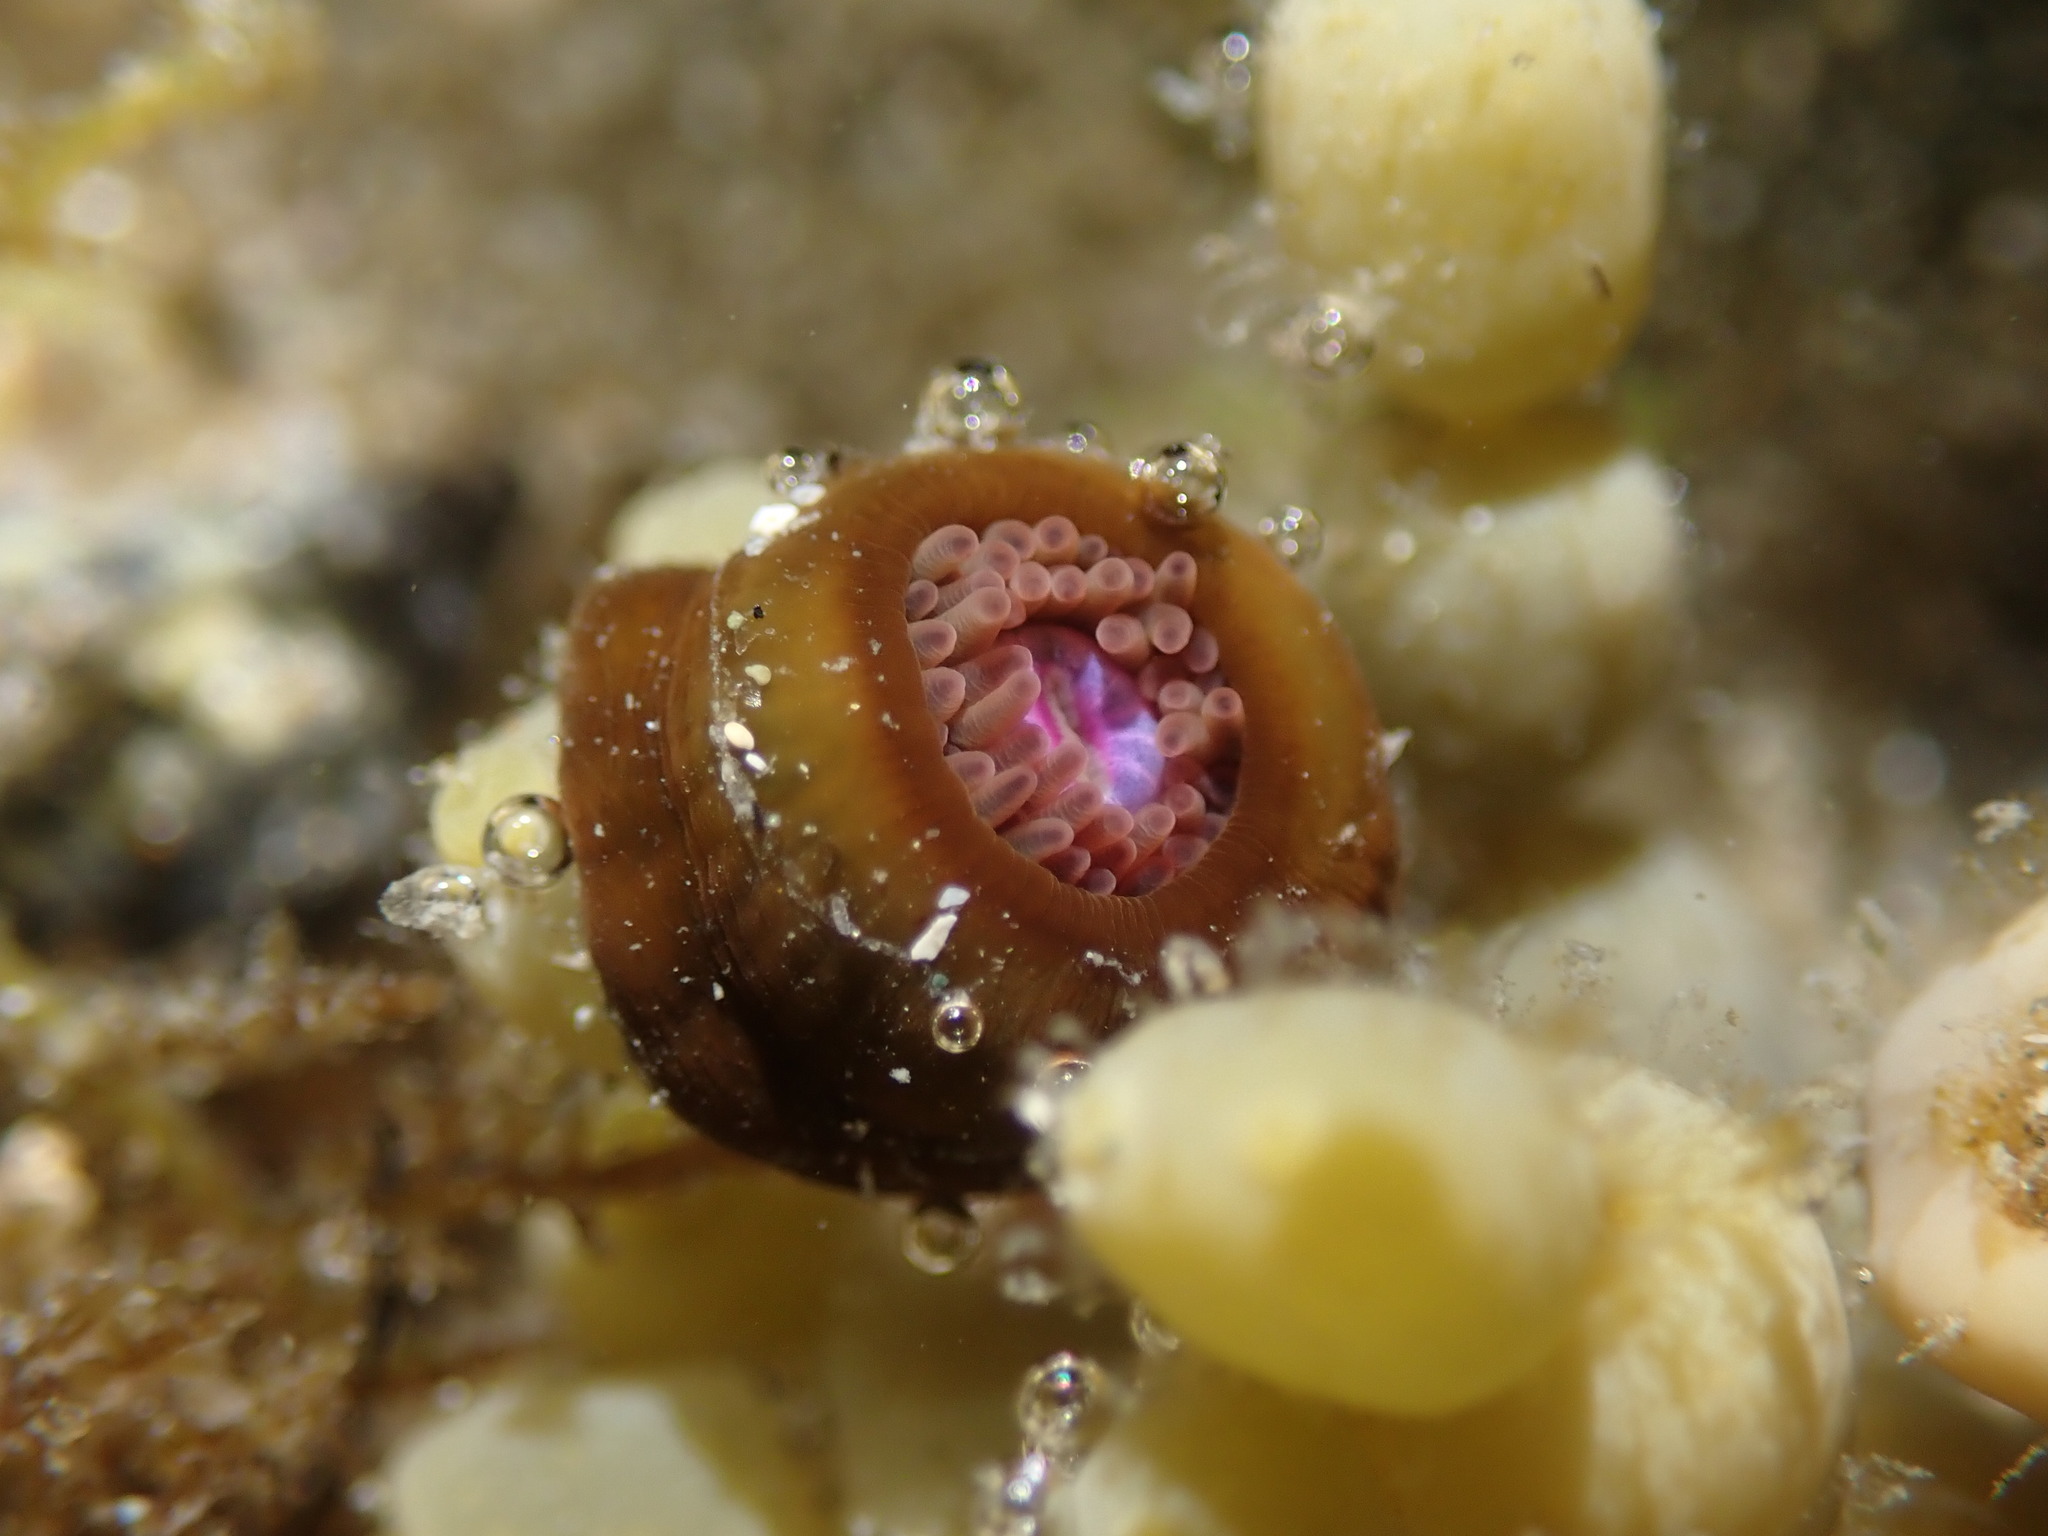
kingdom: Animalia
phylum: Cnidaria
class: Anthozoa
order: Actiniaria
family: Hormathiidae
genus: Handactis
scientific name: Handactis nutrix
